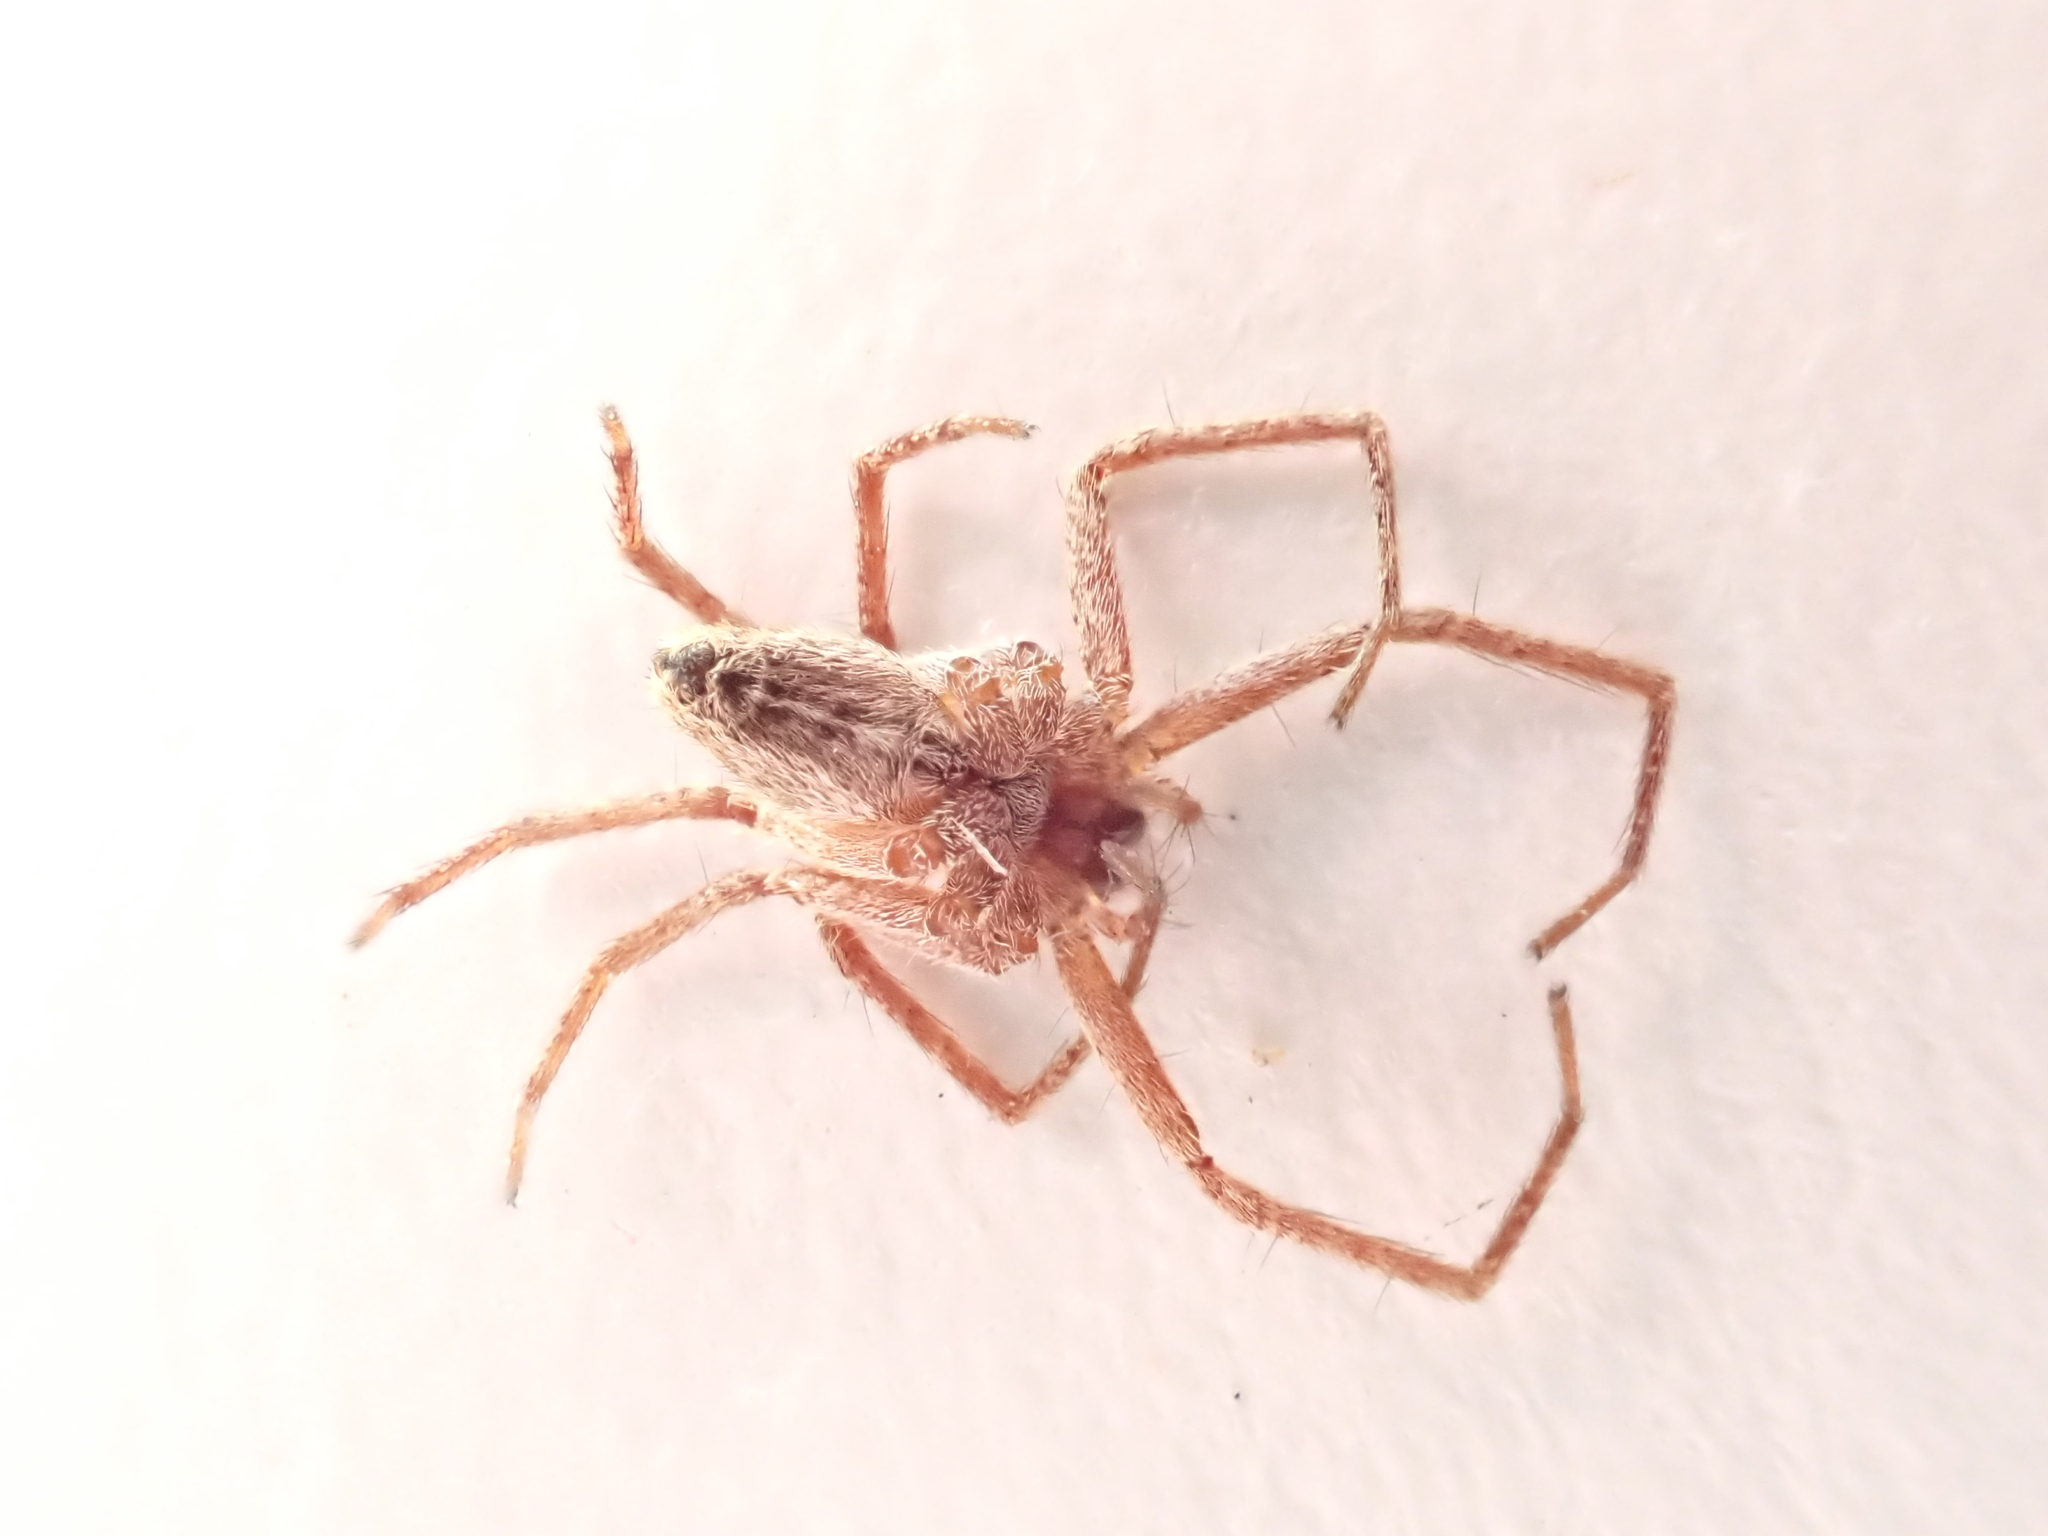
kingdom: Animalia
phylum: Arthropoda
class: Arachnida
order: Araneae
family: Pisauridae
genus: Pisaurina
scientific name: Pisaurina mira
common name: American nursery web spider
